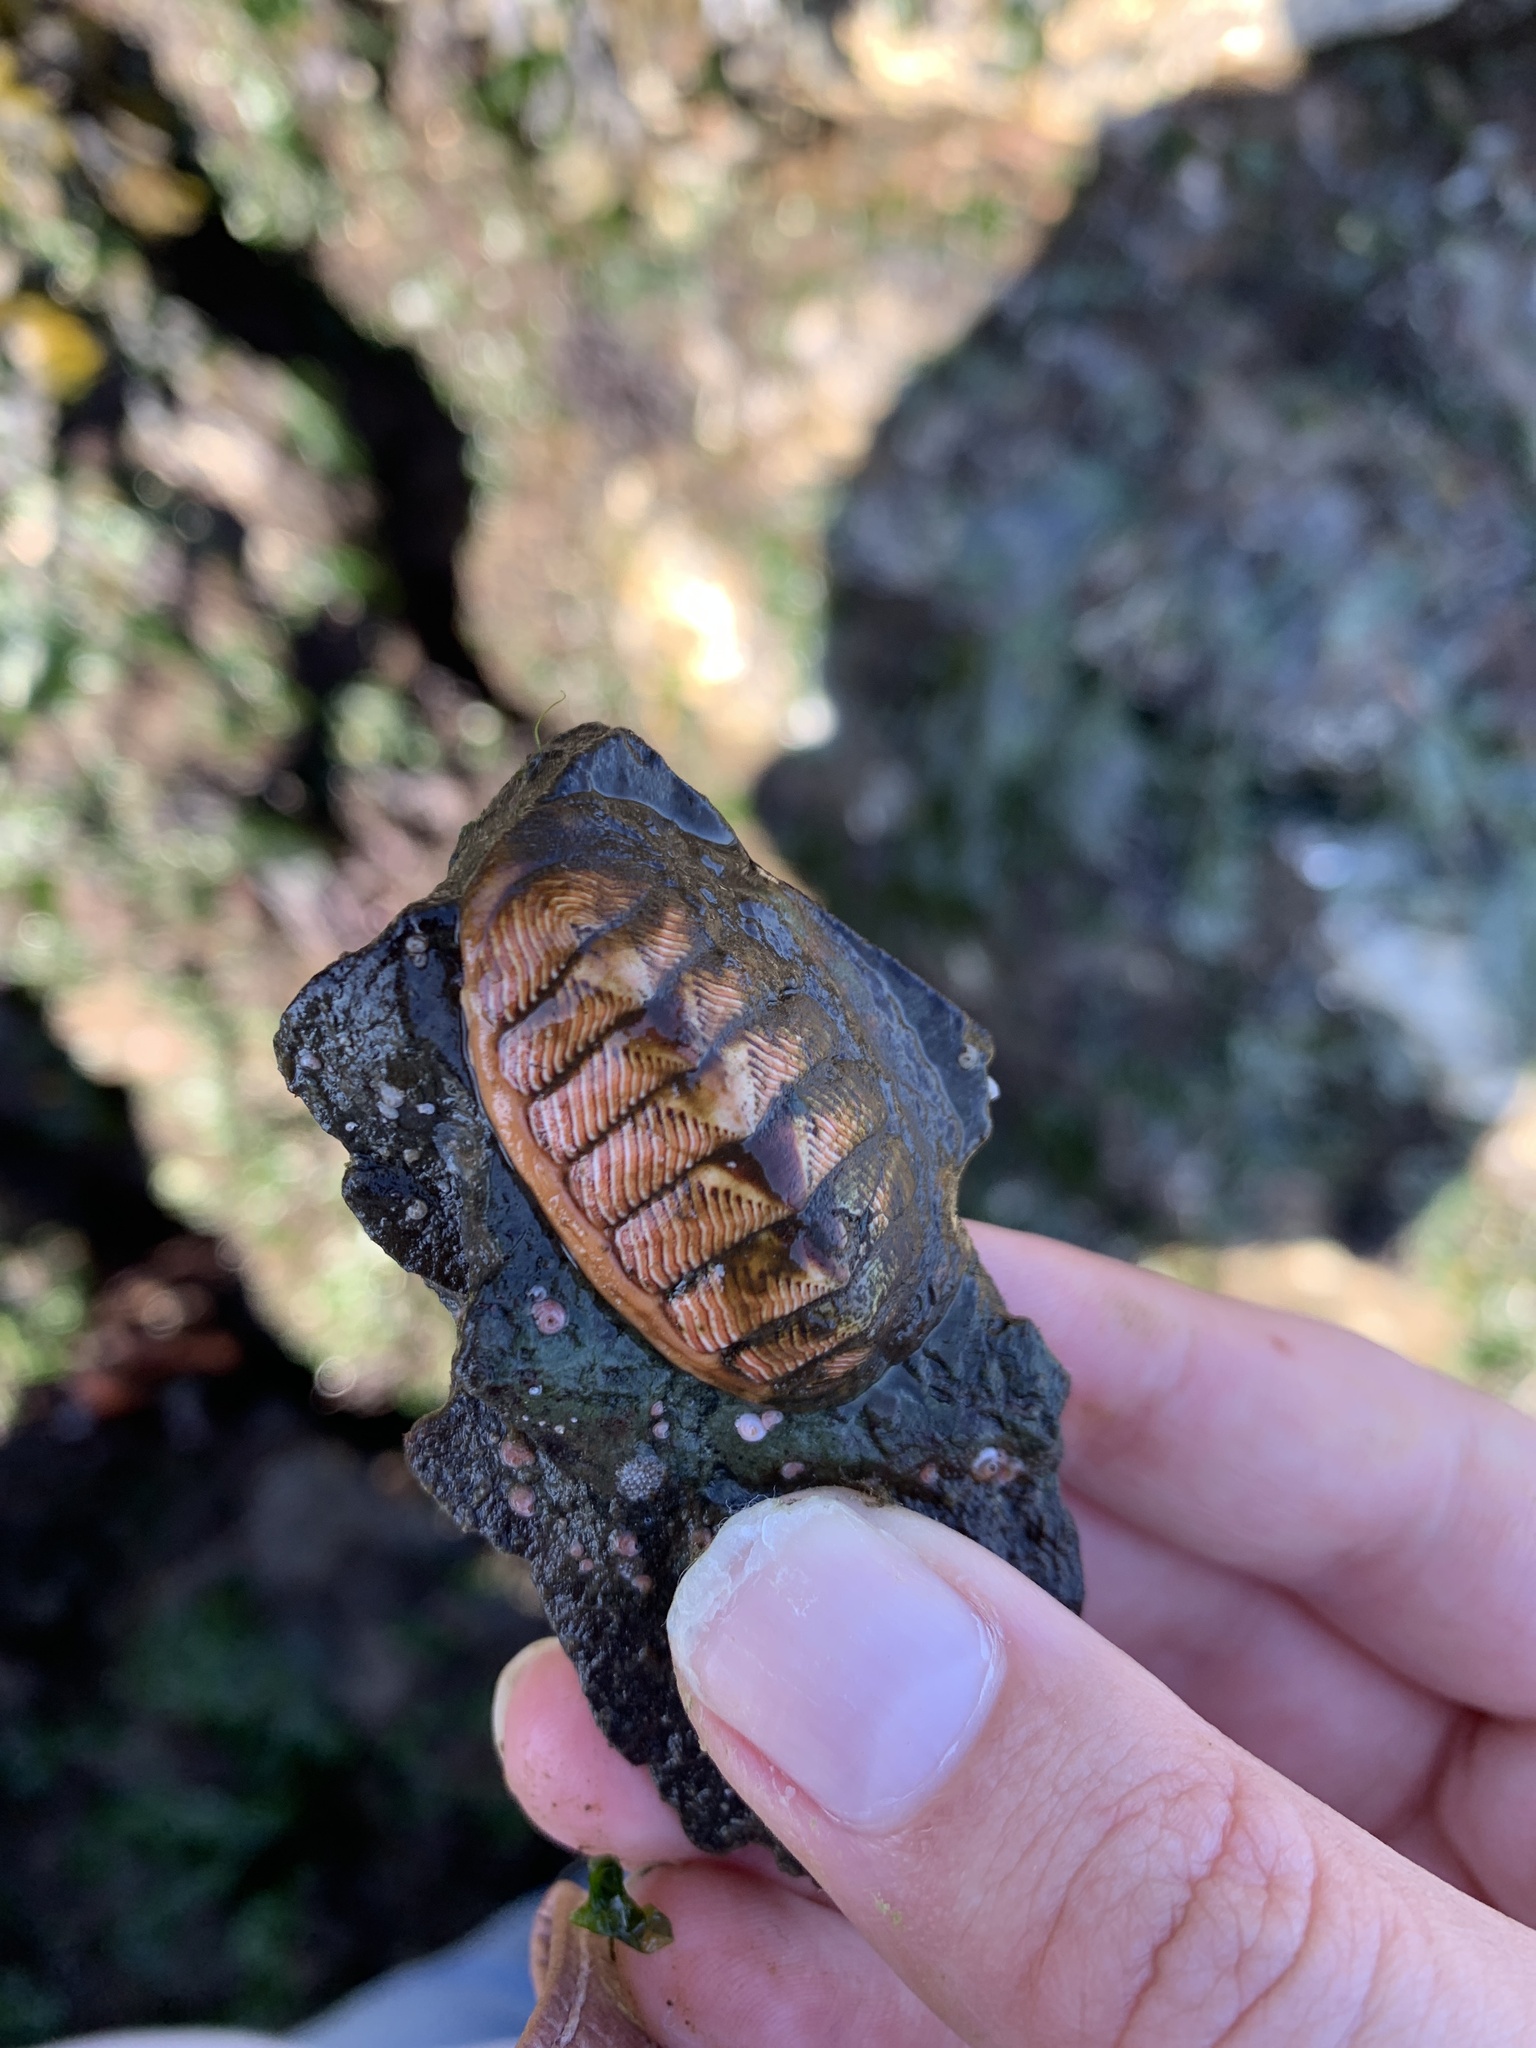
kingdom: Animalia
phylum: Mollusca
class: Polyplacophora
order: Chitonida
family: Tonicellidae
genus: Tonicella
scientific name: Tonicella lineata
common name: Lined chiton
